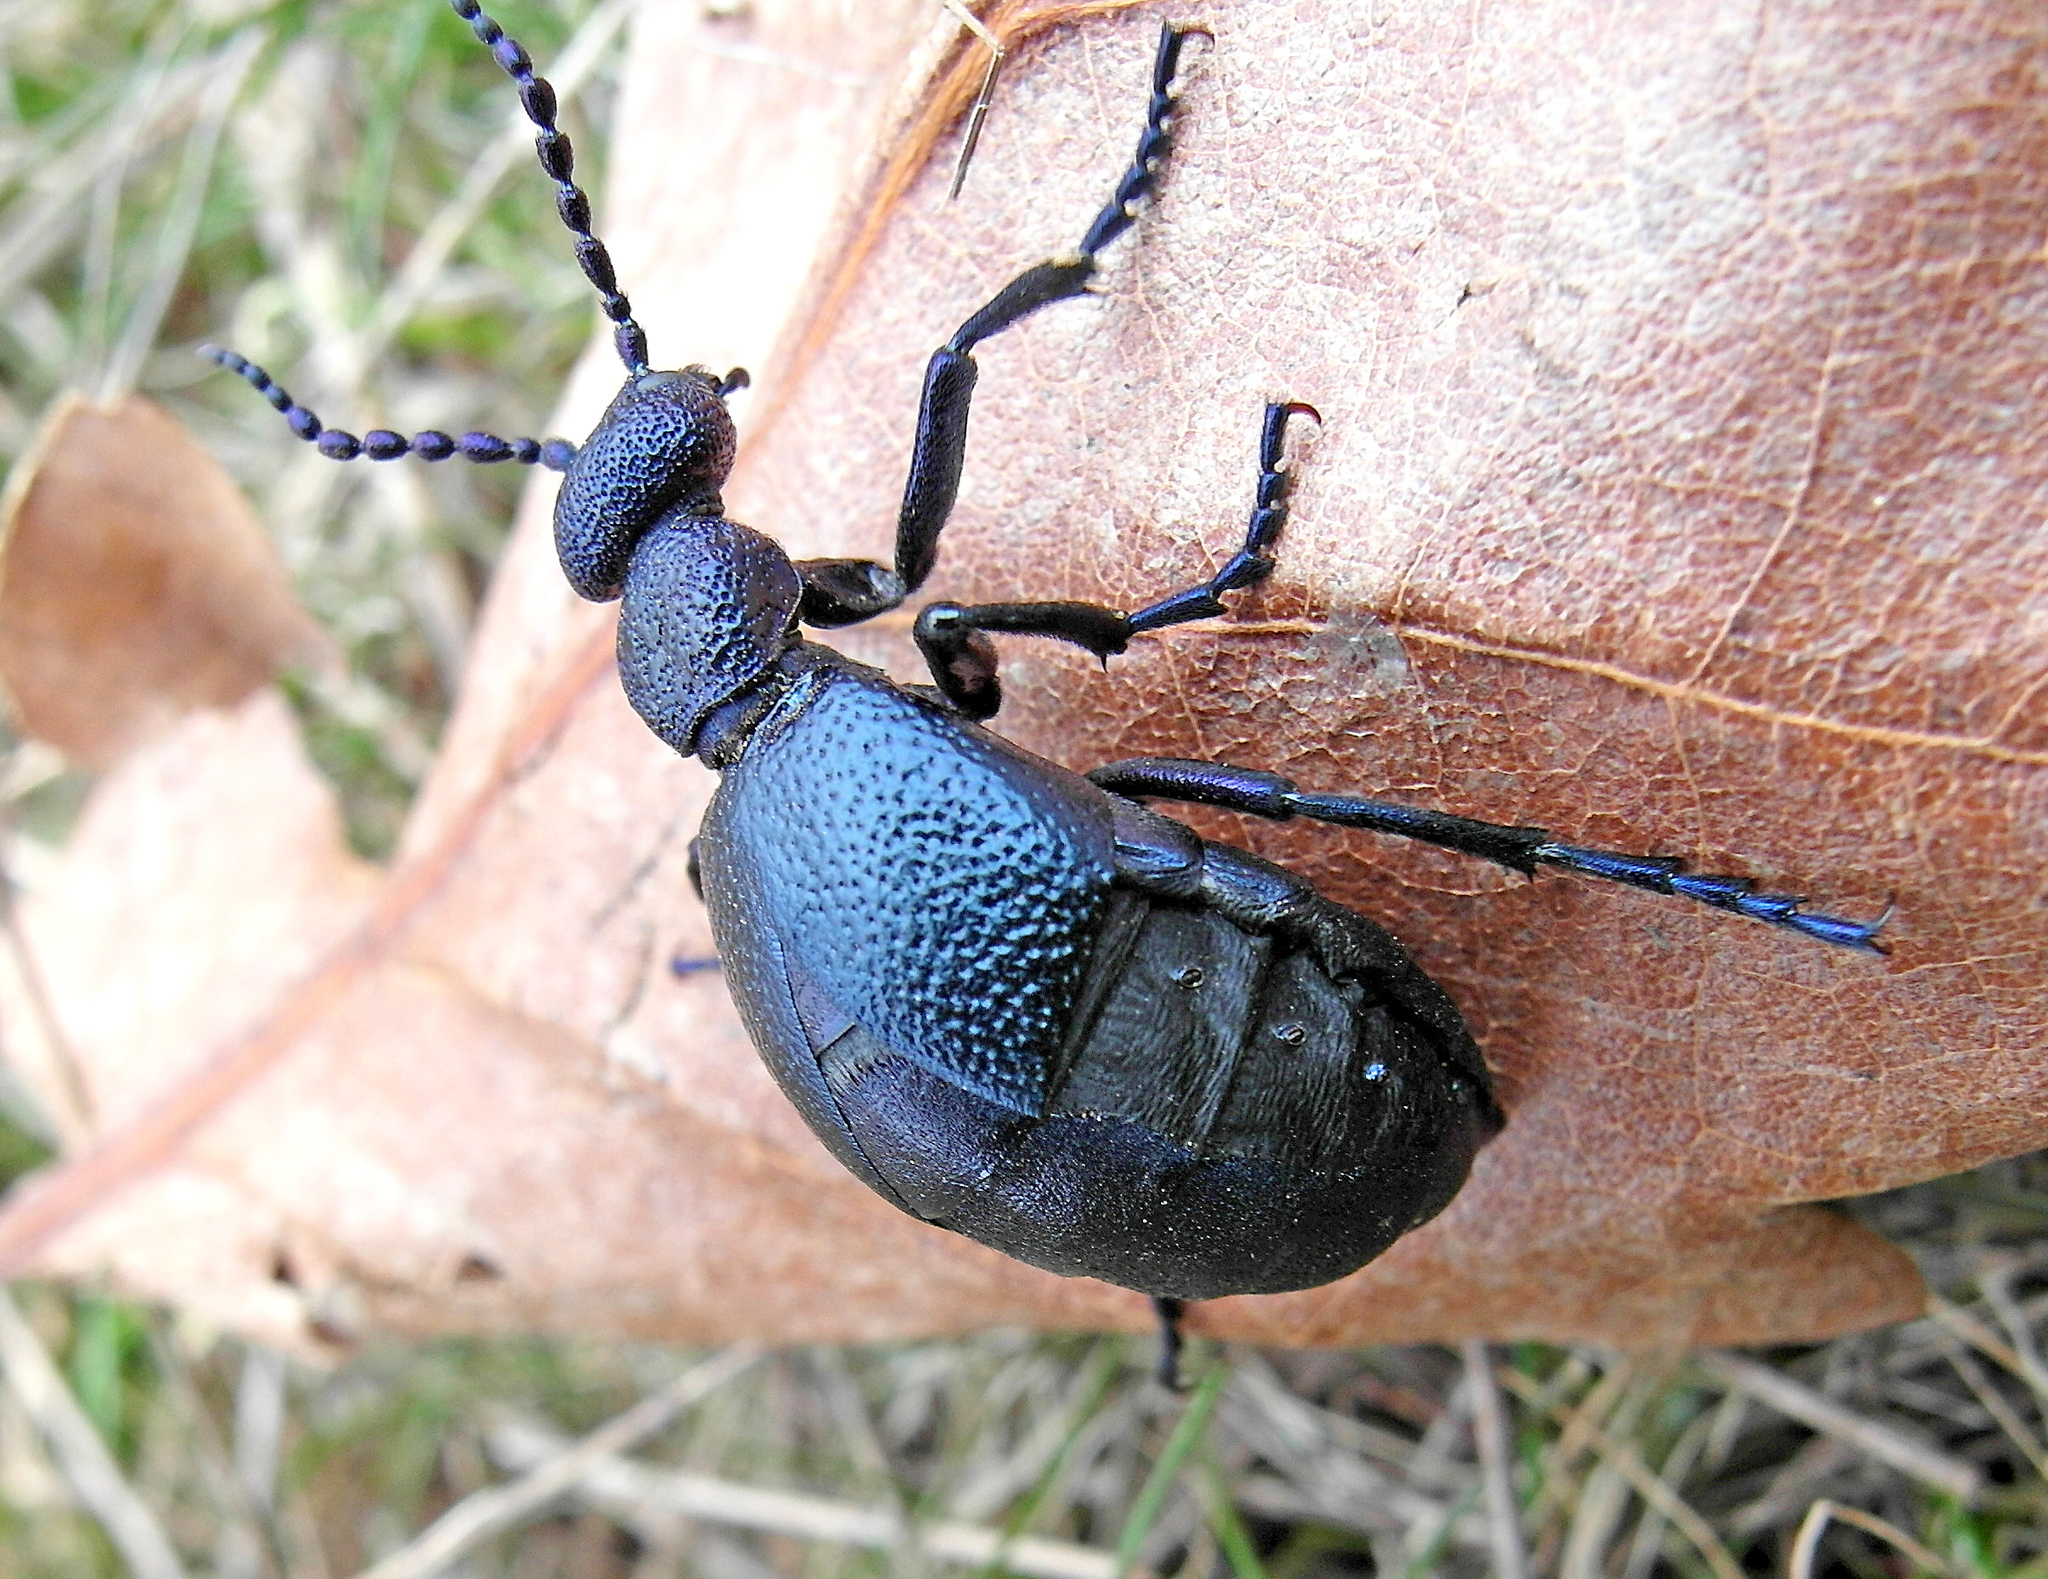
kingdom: Animalia
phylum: Arthropoda
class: Insecta
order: Coleoptera
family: Meloidae
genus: Meloe
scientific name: Meloe proscarabaeus
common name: Black oil-beetle
